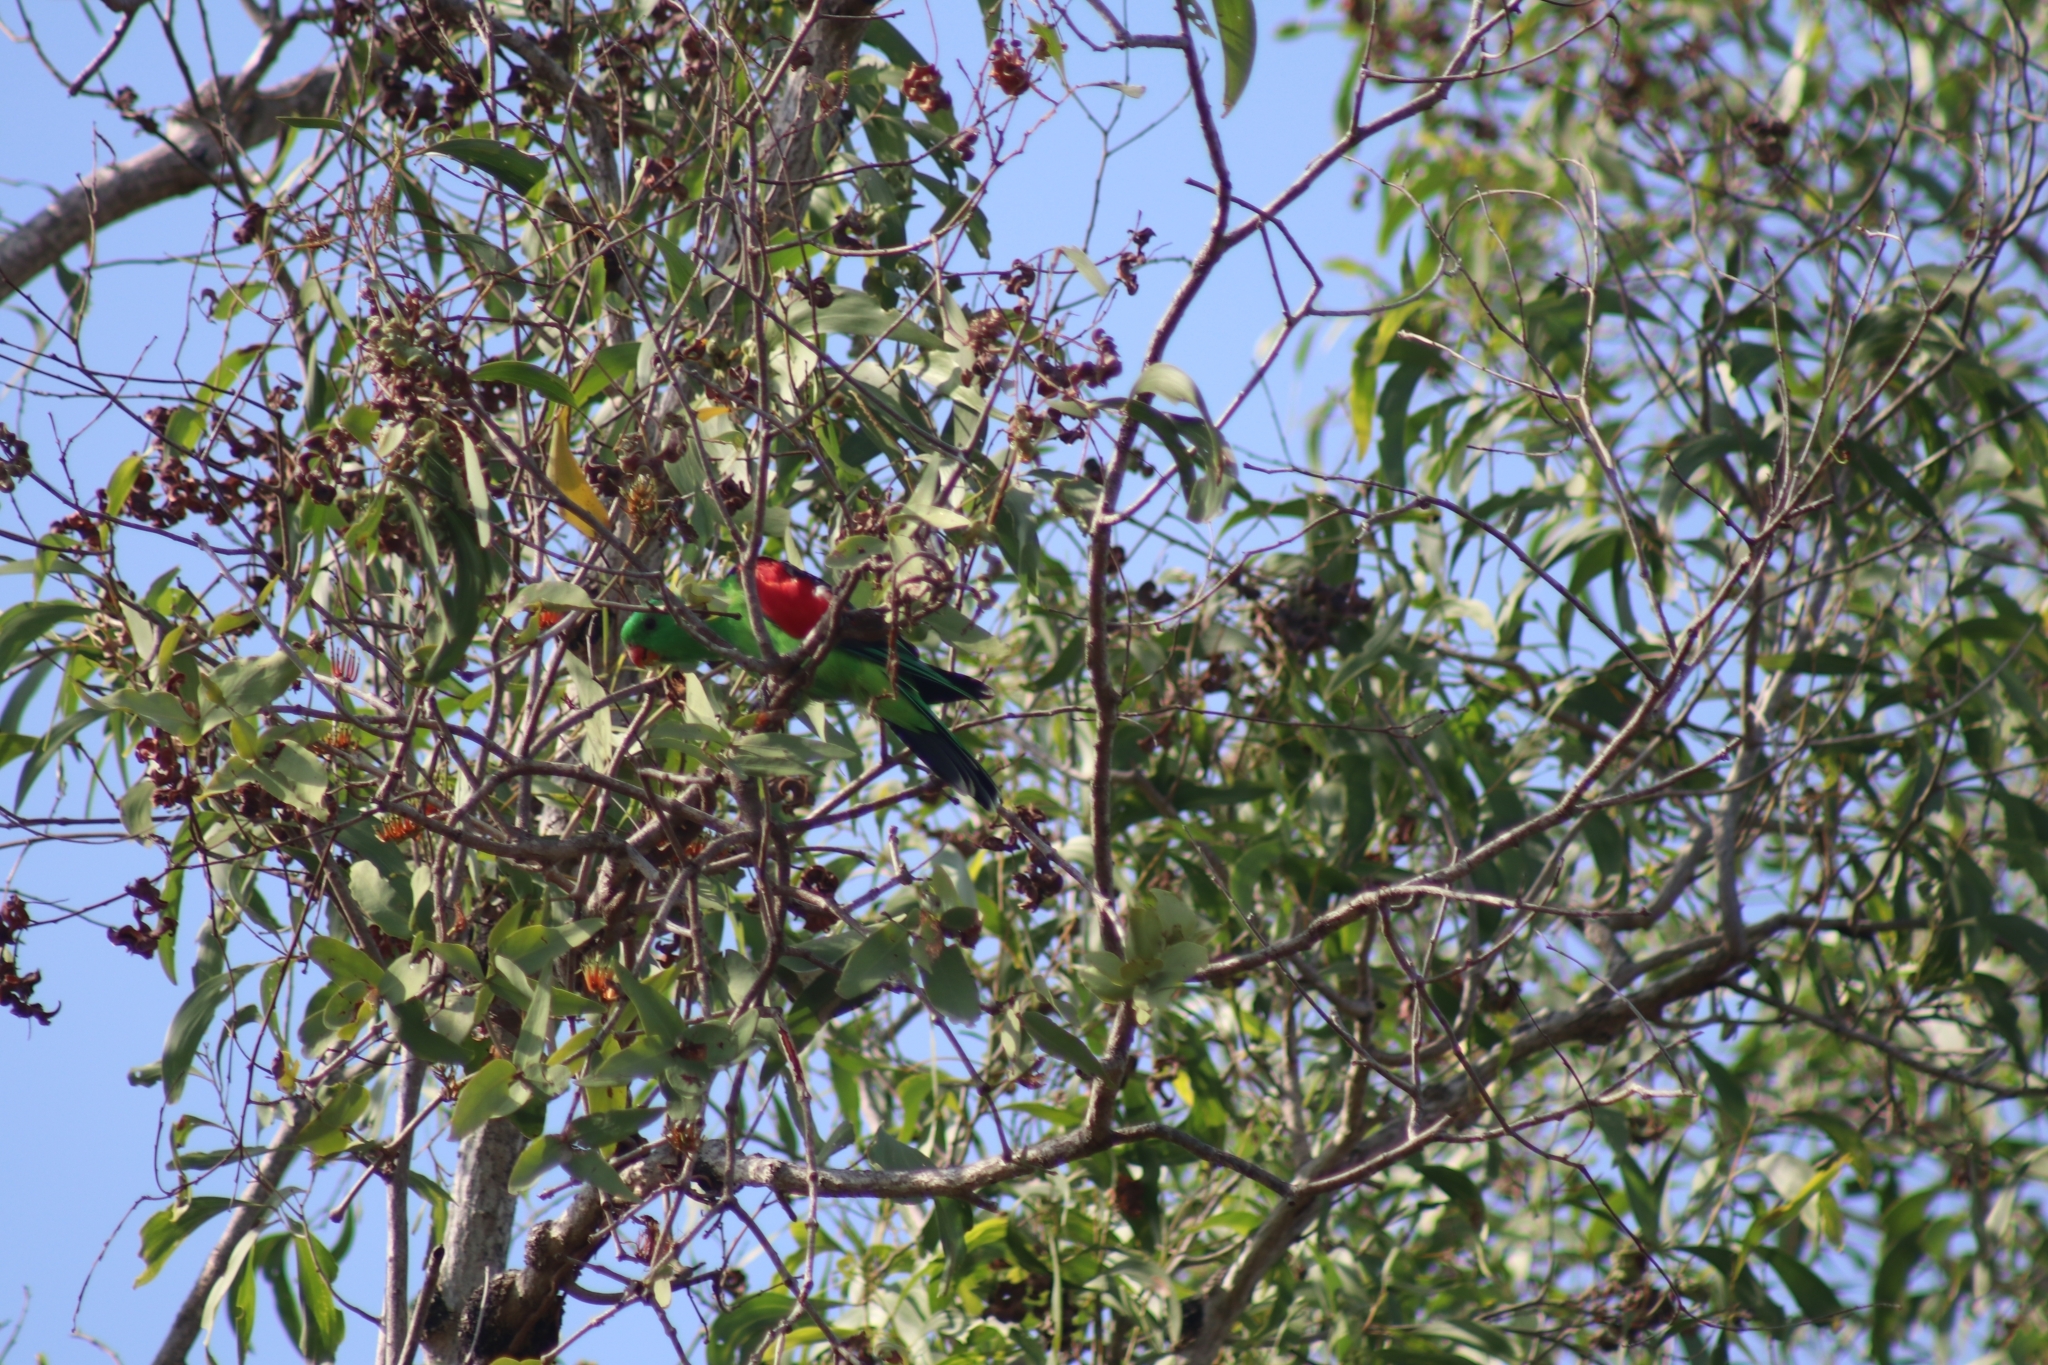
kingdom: Animalia
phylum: Chordata
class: Aves
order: Psittaciformes
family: Psittacidae
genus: Aprosmictus
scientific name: Aprosmictus erythropterus
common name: Red-winged parrot
